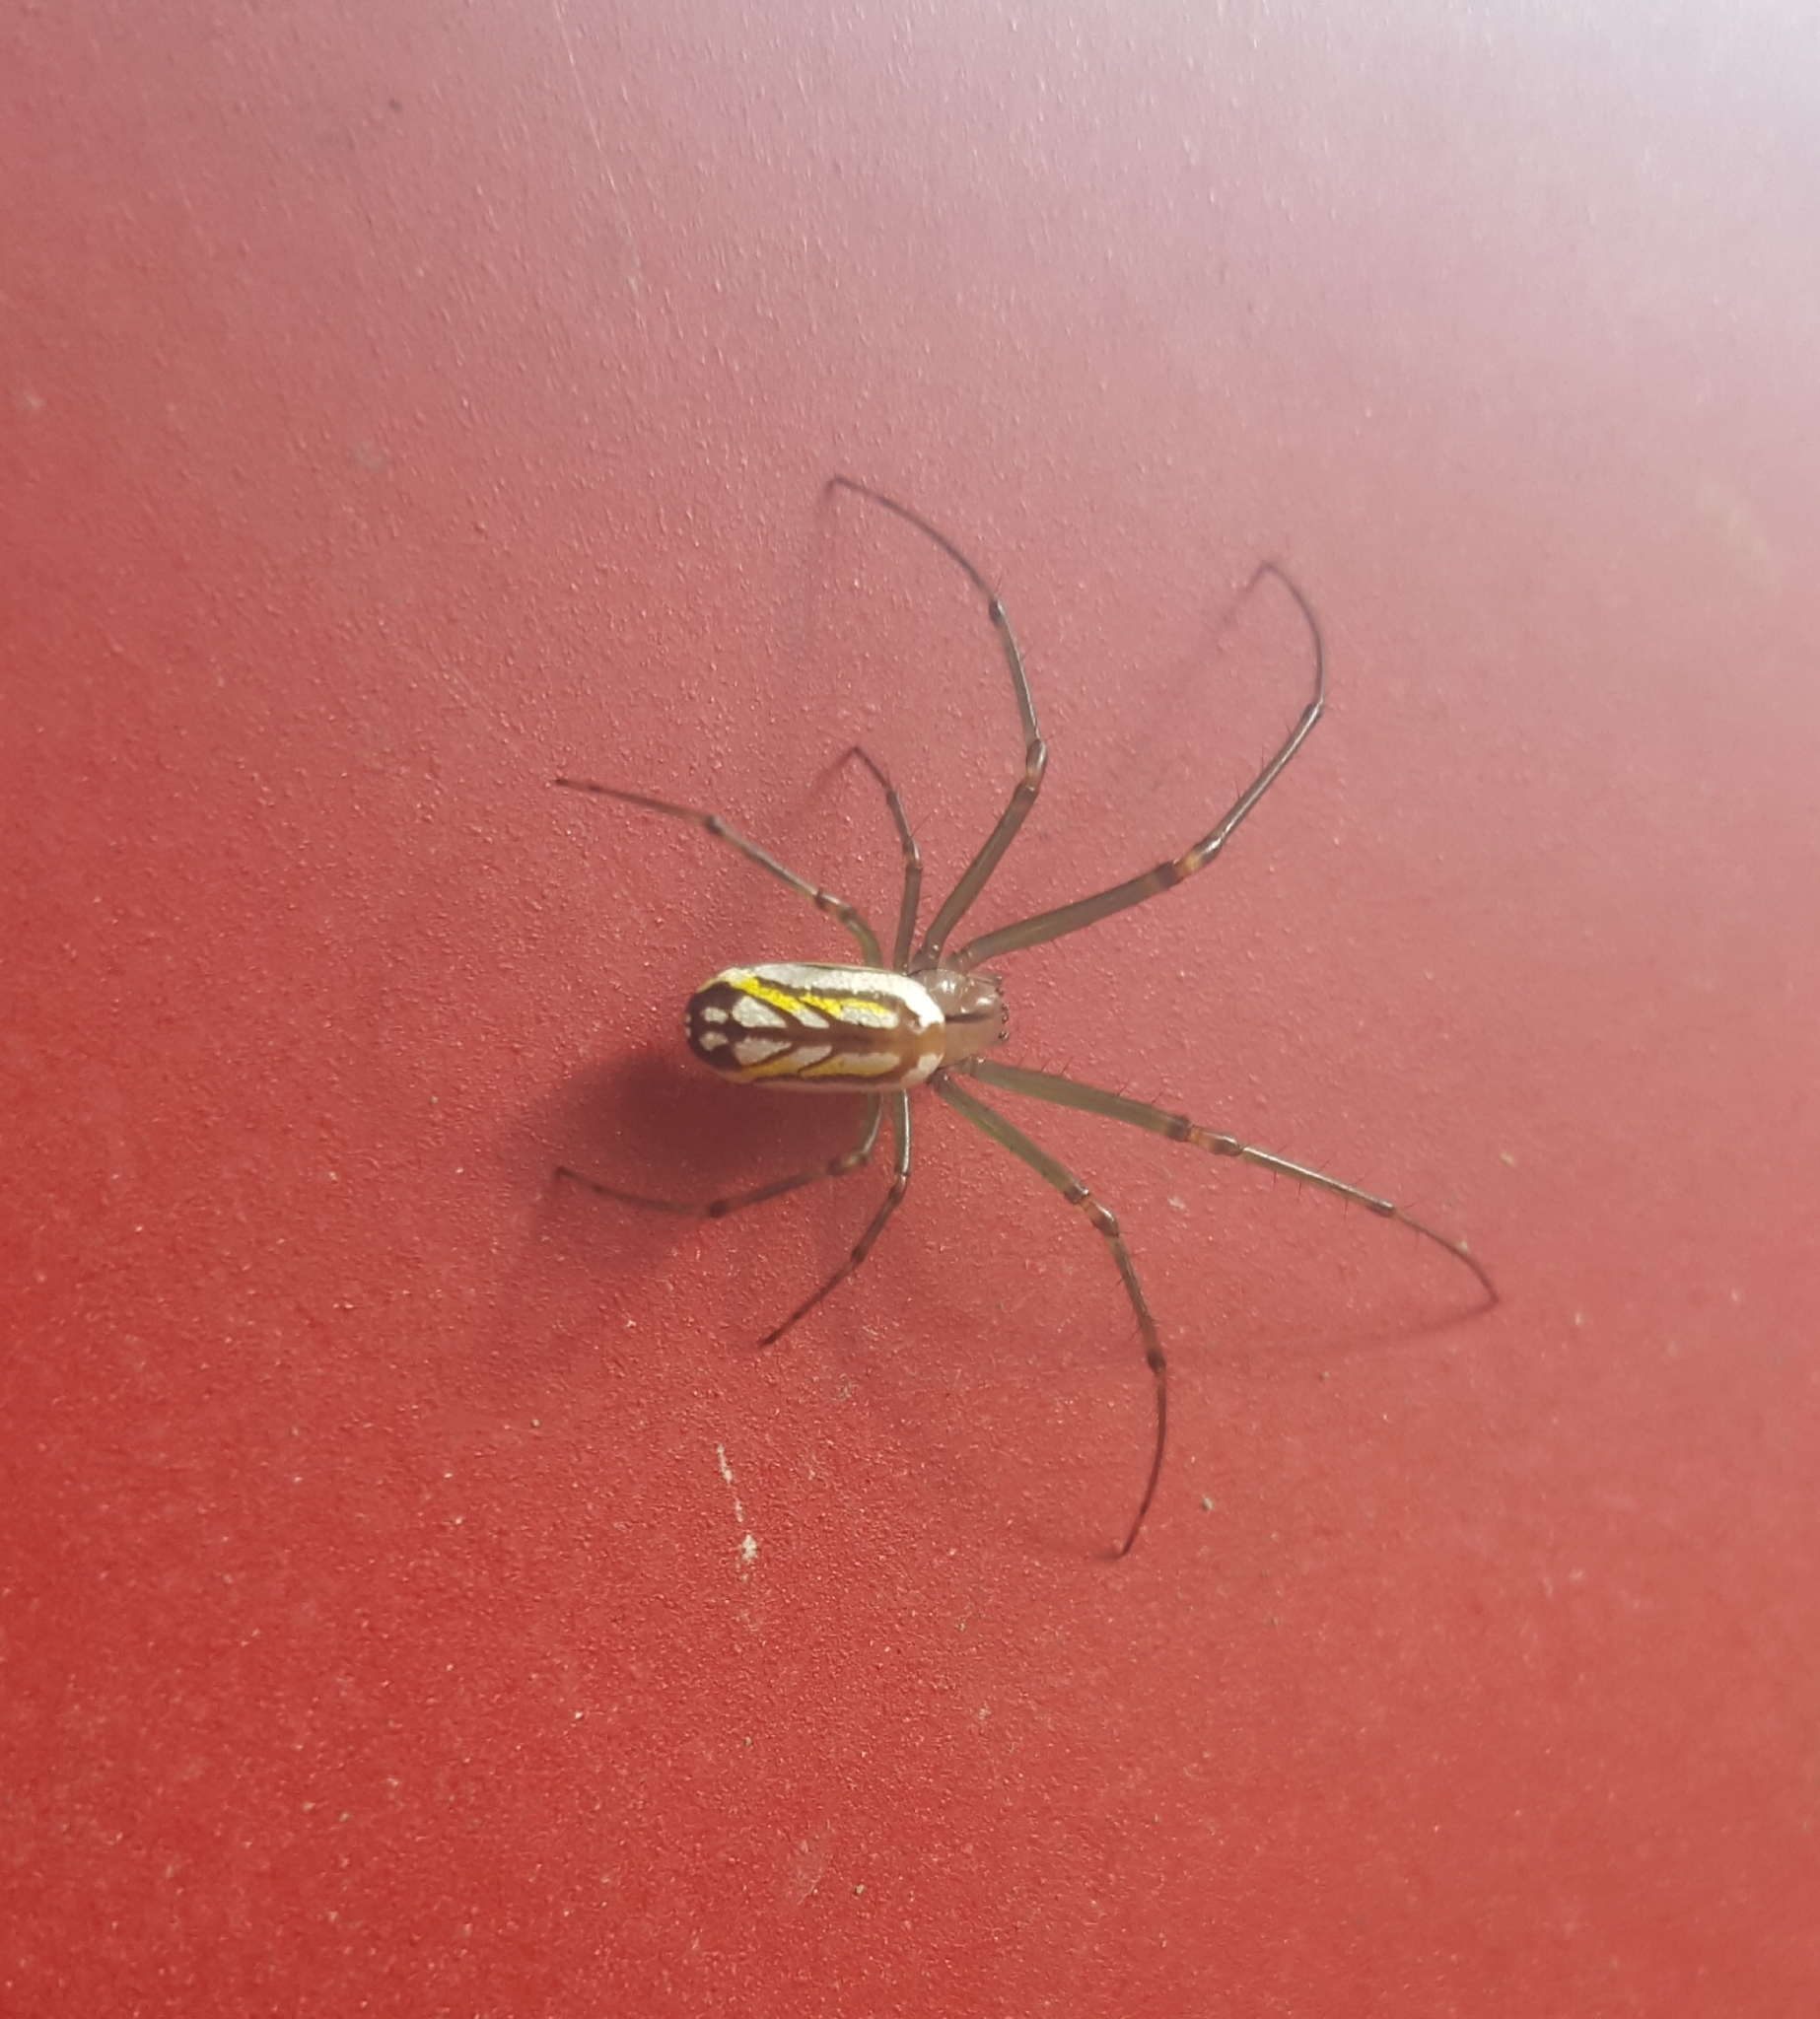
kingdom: Animalia
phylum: Arthropoda
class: Arachnida
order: Araneae
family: Tetragnathidae
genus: Leucauge
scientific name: Leucauge venusta
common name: Longjawed orb weavers
